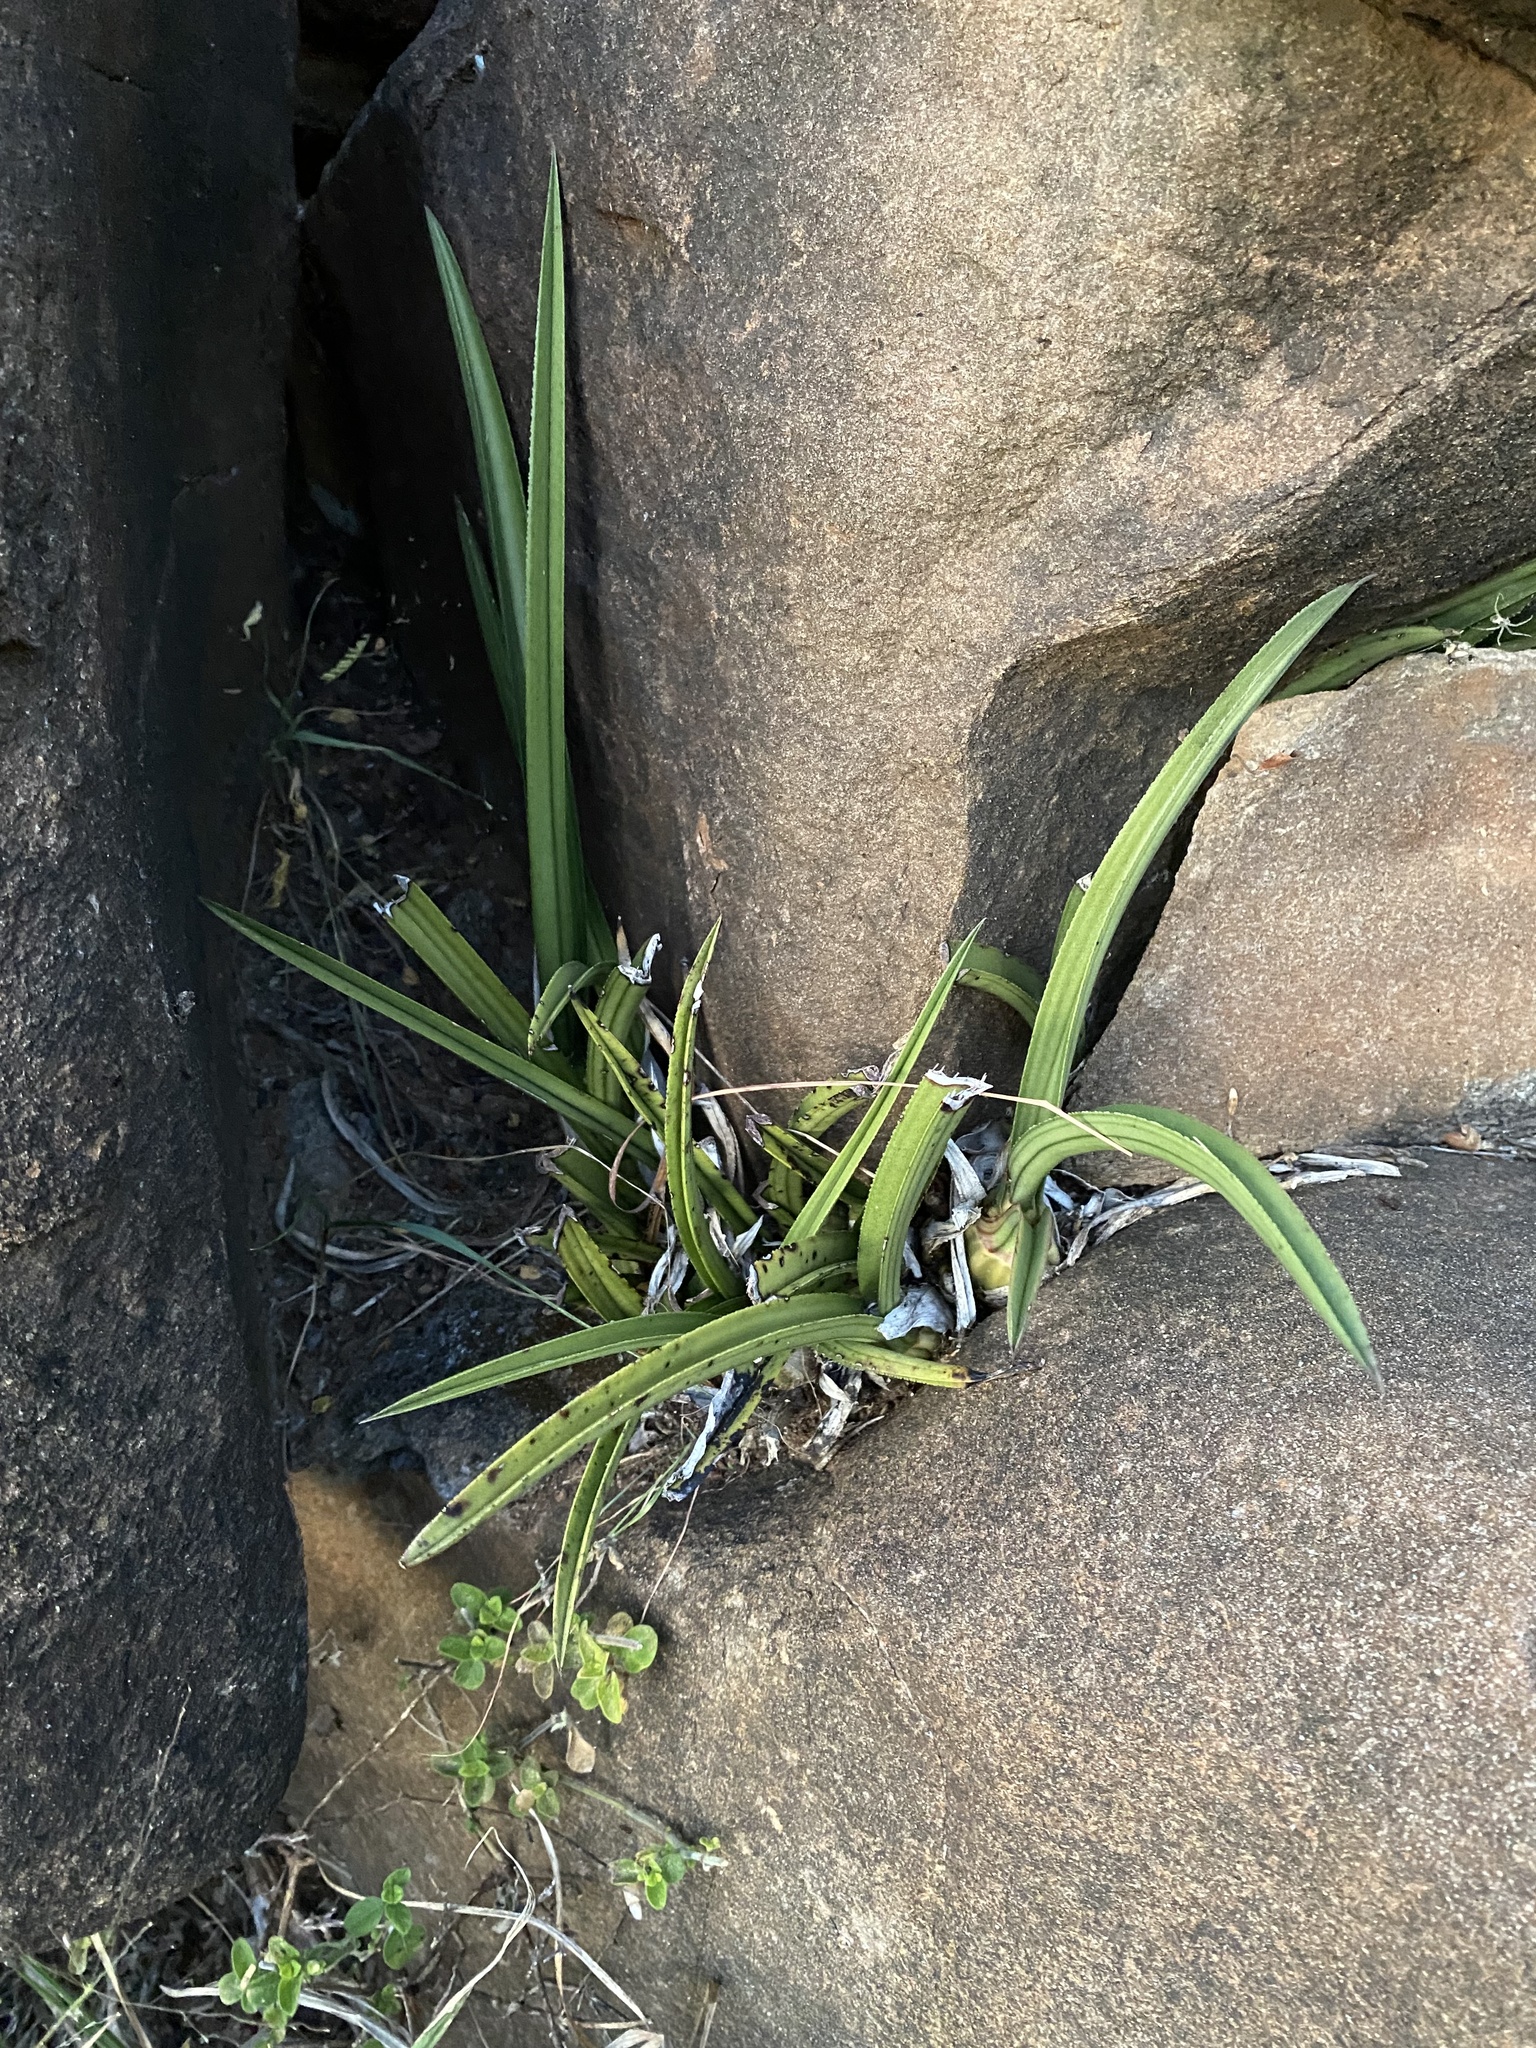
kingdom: Plantae
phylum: Tracheophyta
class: Liliopsida
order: Asparagales
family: Orchidaceae
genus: Eulophia
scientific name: Eulophia petersii
